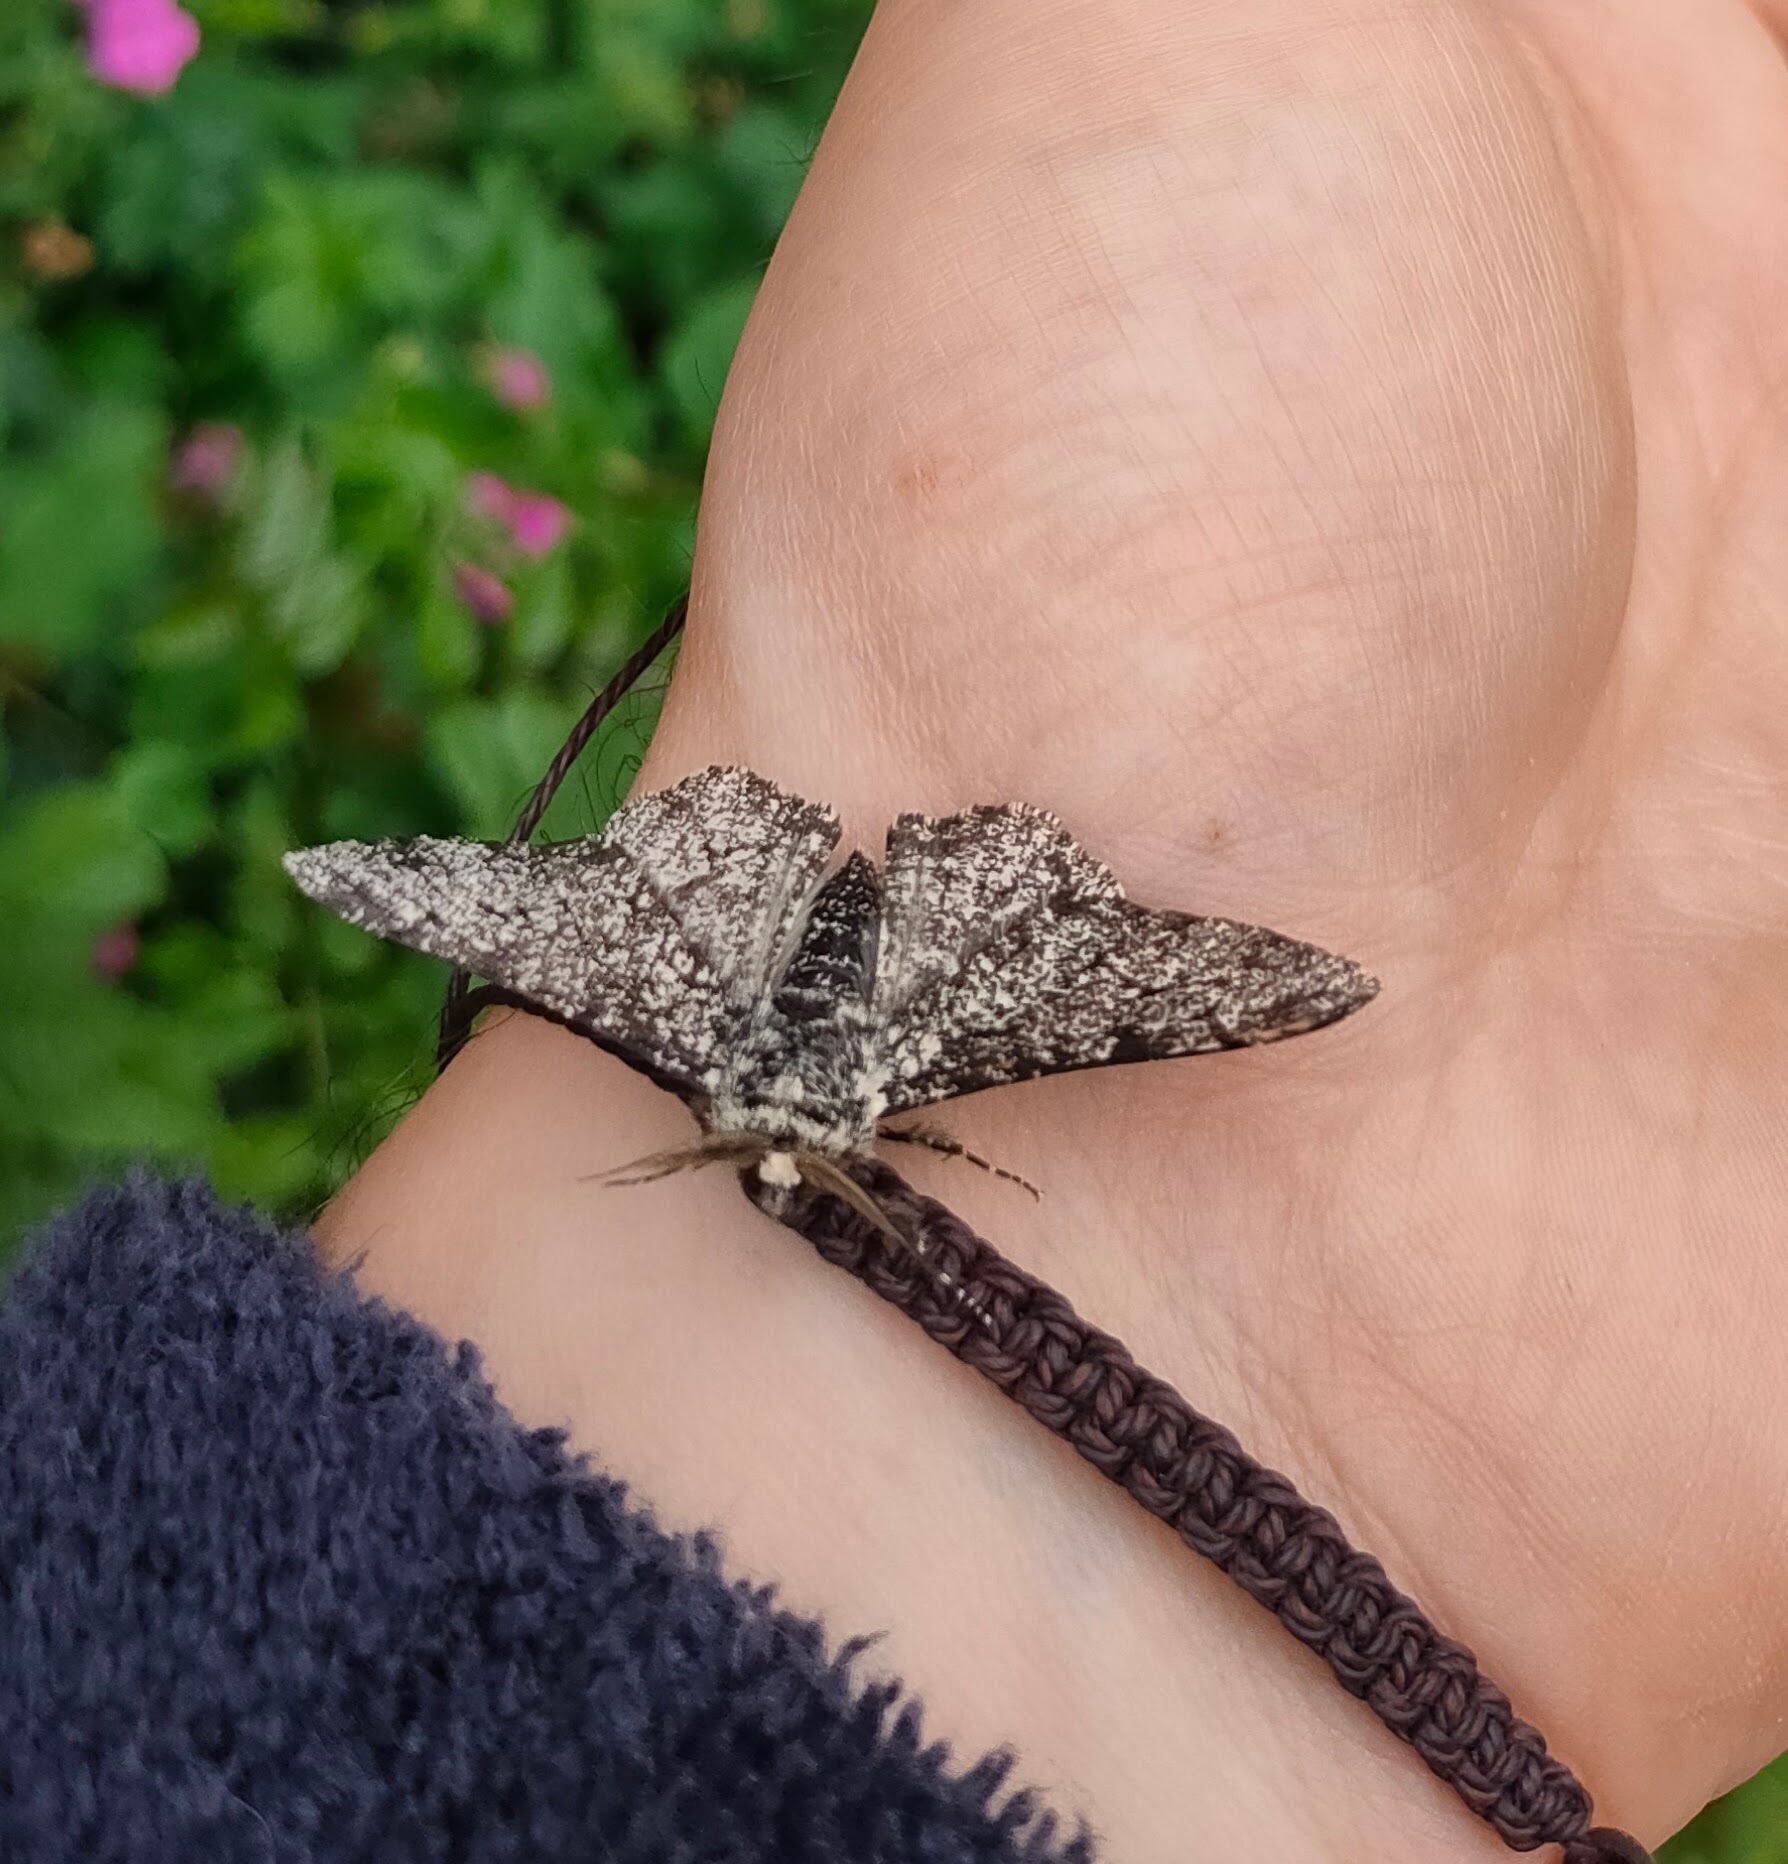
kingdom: Animalia
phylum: Arthropoda
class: Insecta
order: Lepidoptera
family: Geometridae
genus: Biston
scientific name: Biston betularia
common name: Peppered moth
